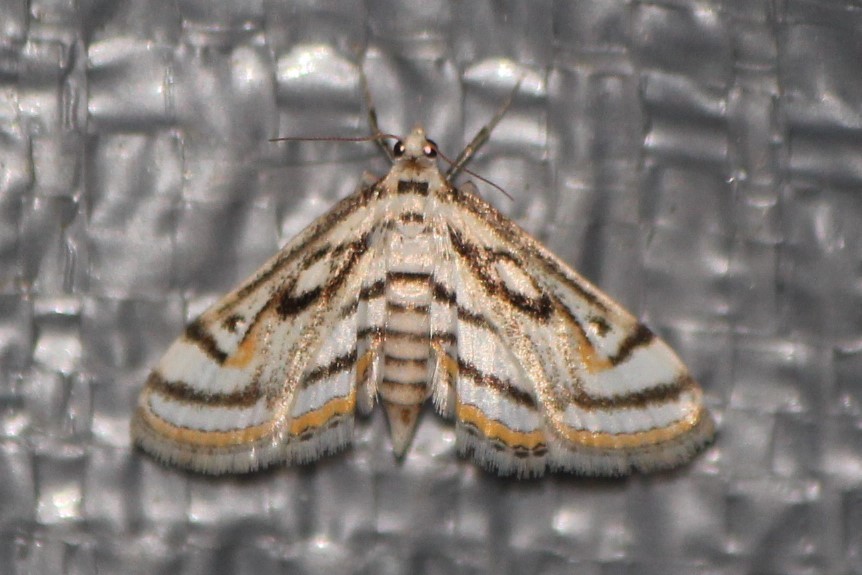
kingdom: Animalia
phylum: Arthropoda
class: Insecta
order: Lepidoptera
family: Crambidae
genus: Parapoynx
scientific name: Parapoynx badiusalis
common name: Chestnut-marked pondweed moth
